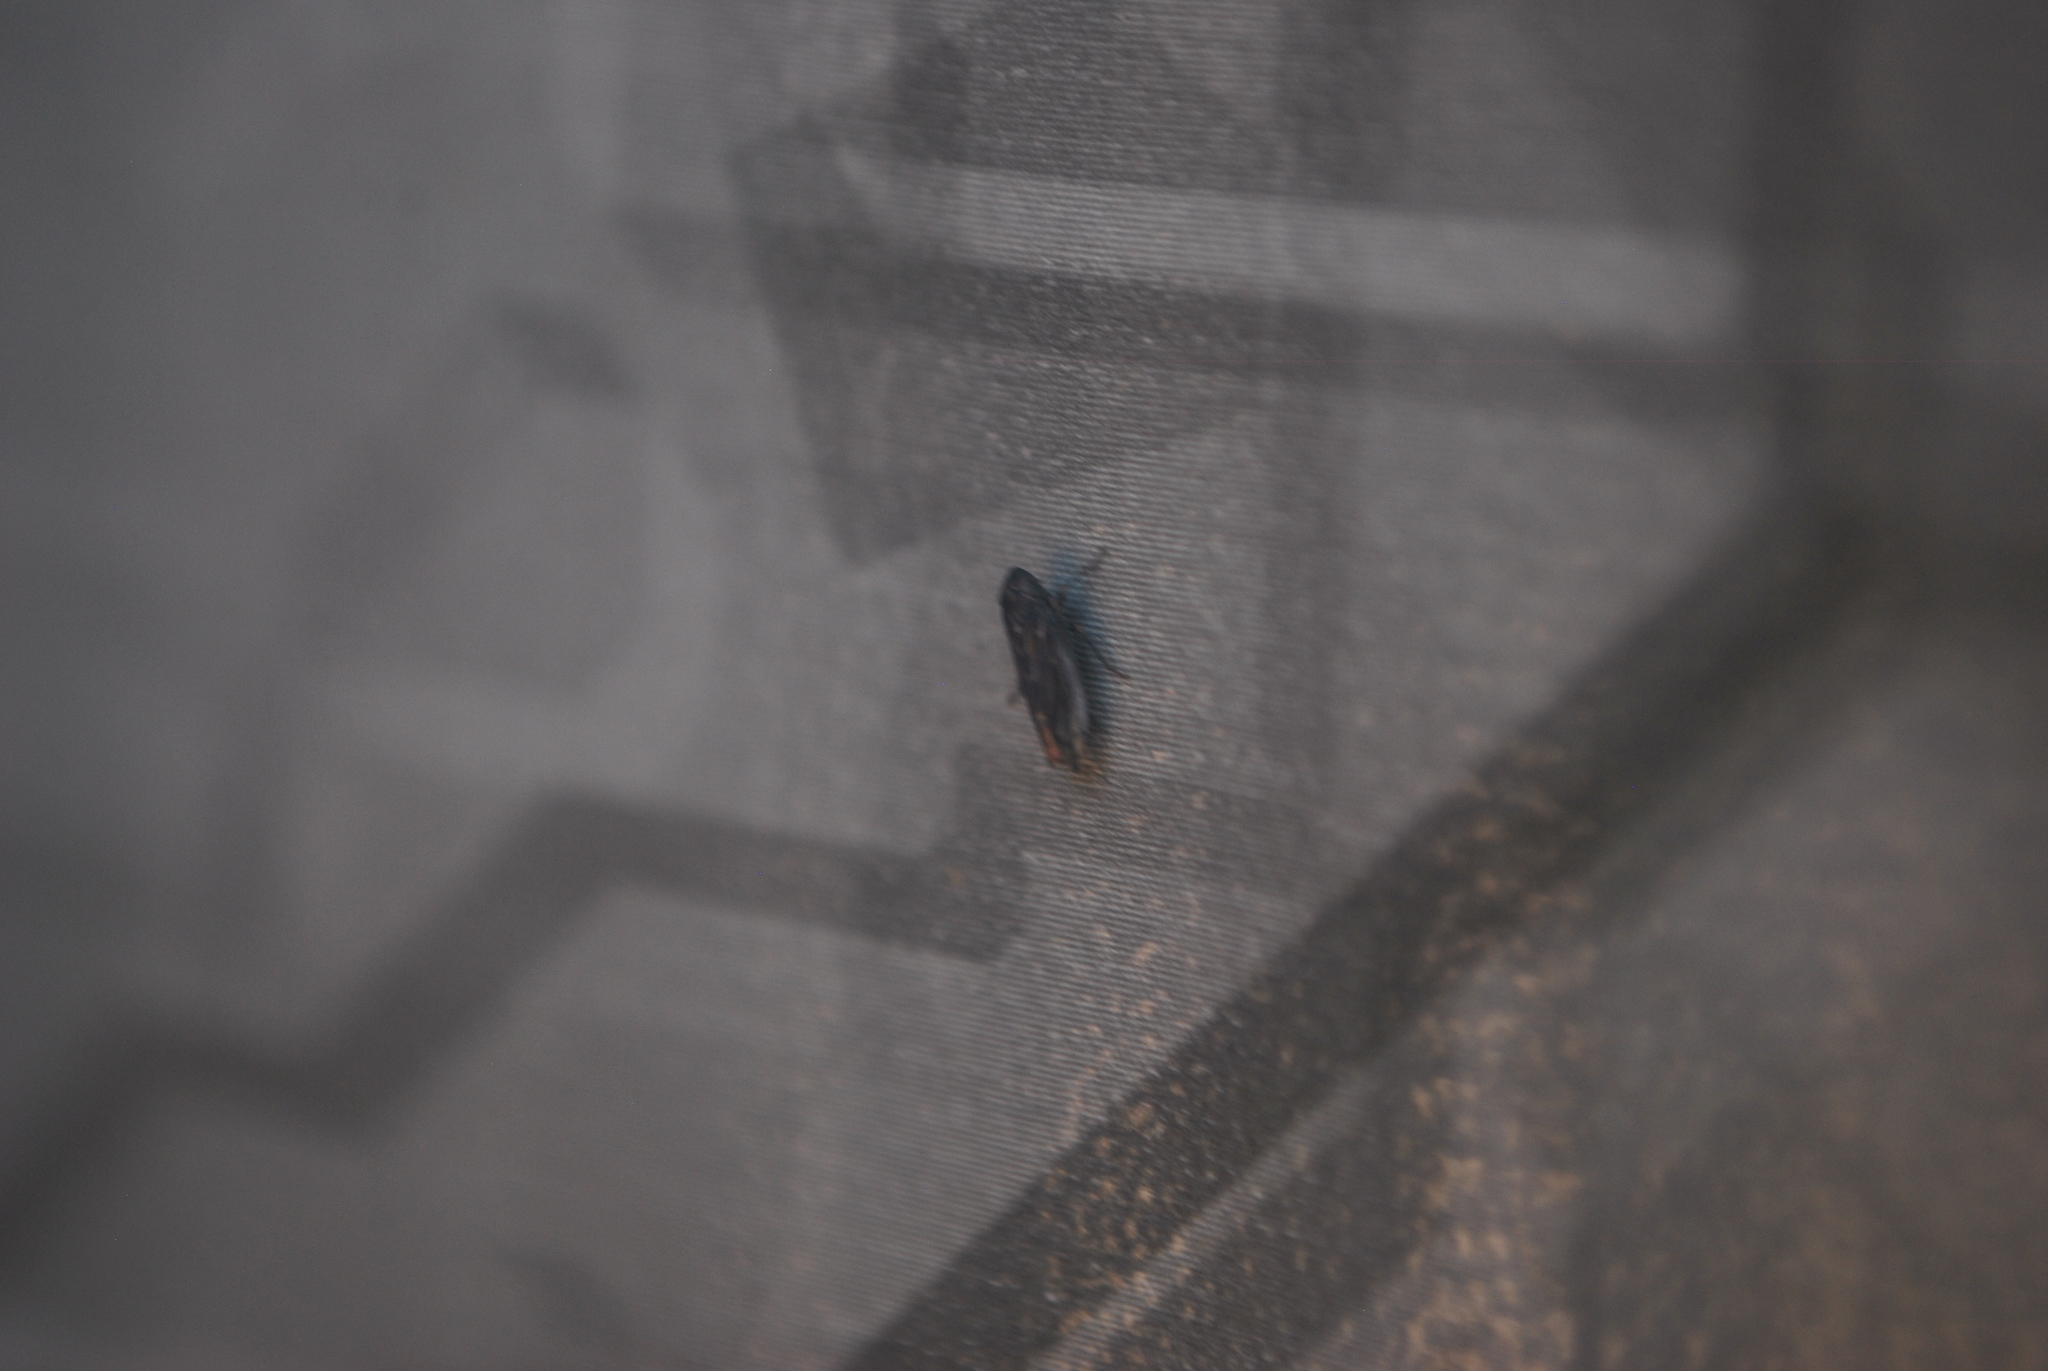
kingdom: Animalia
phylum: Arthropoda
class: Insecta
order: Hemiptera
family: Cicadellidae
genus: Stirellus
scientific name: Stirellus bicolor
